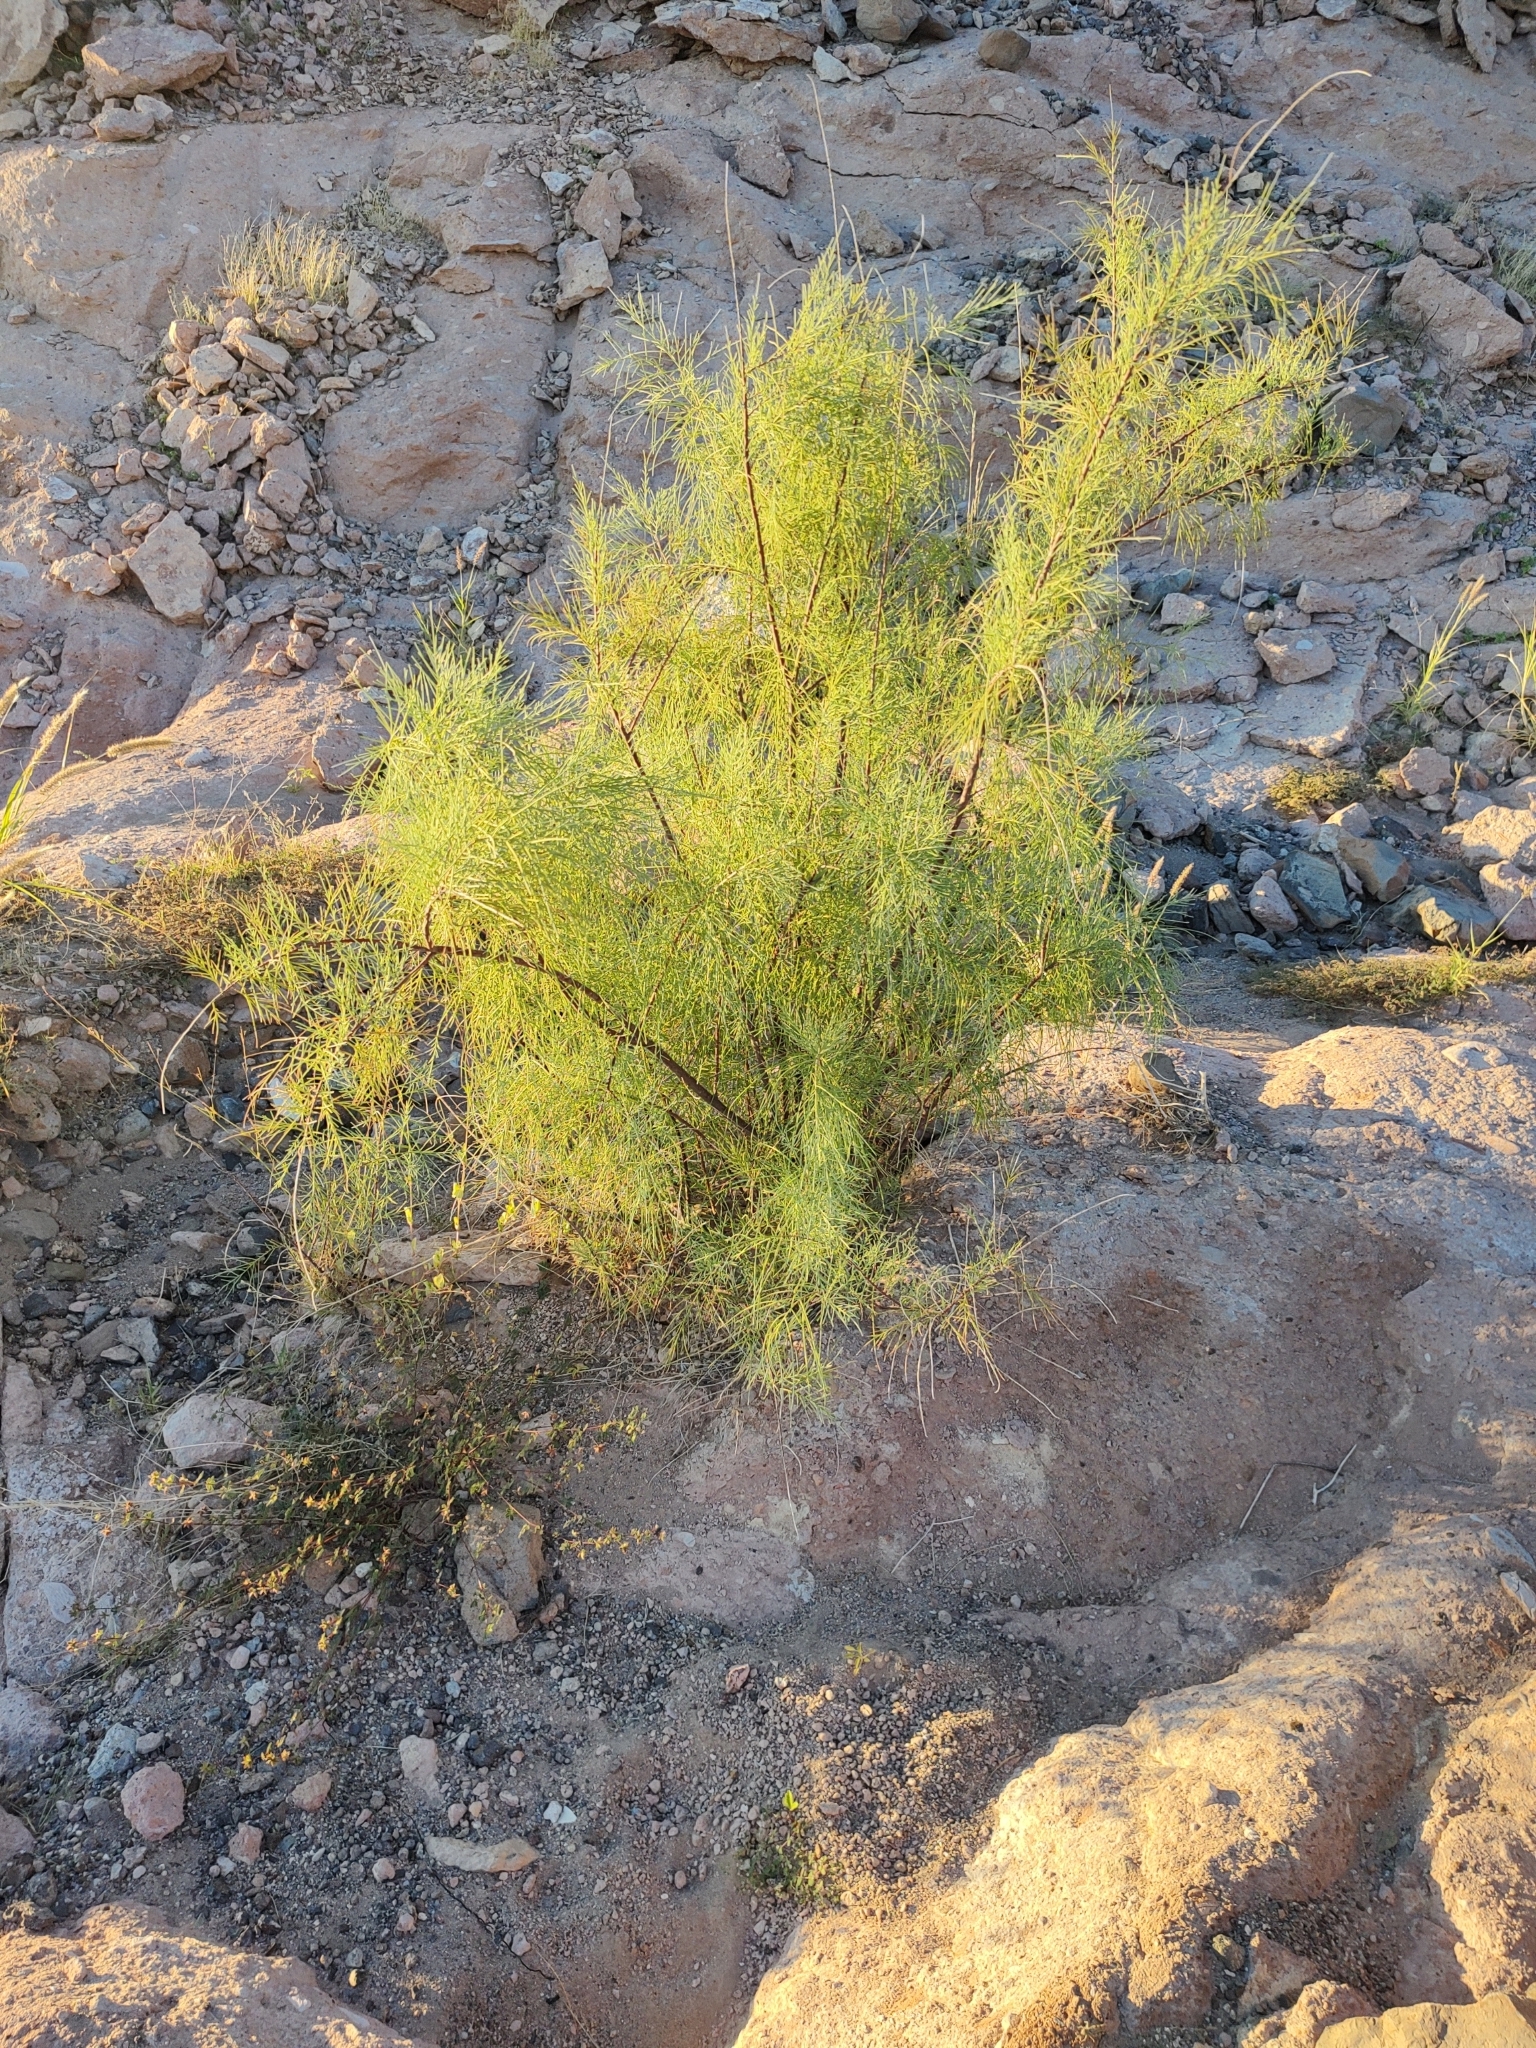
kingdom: Plantae
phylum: Tracheophyta
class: Magnoliopsida
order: Caryophyllales
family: Tamaricaceae
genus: Tamarix
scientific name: Tamarix aphylla
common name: Athel tamarisk
